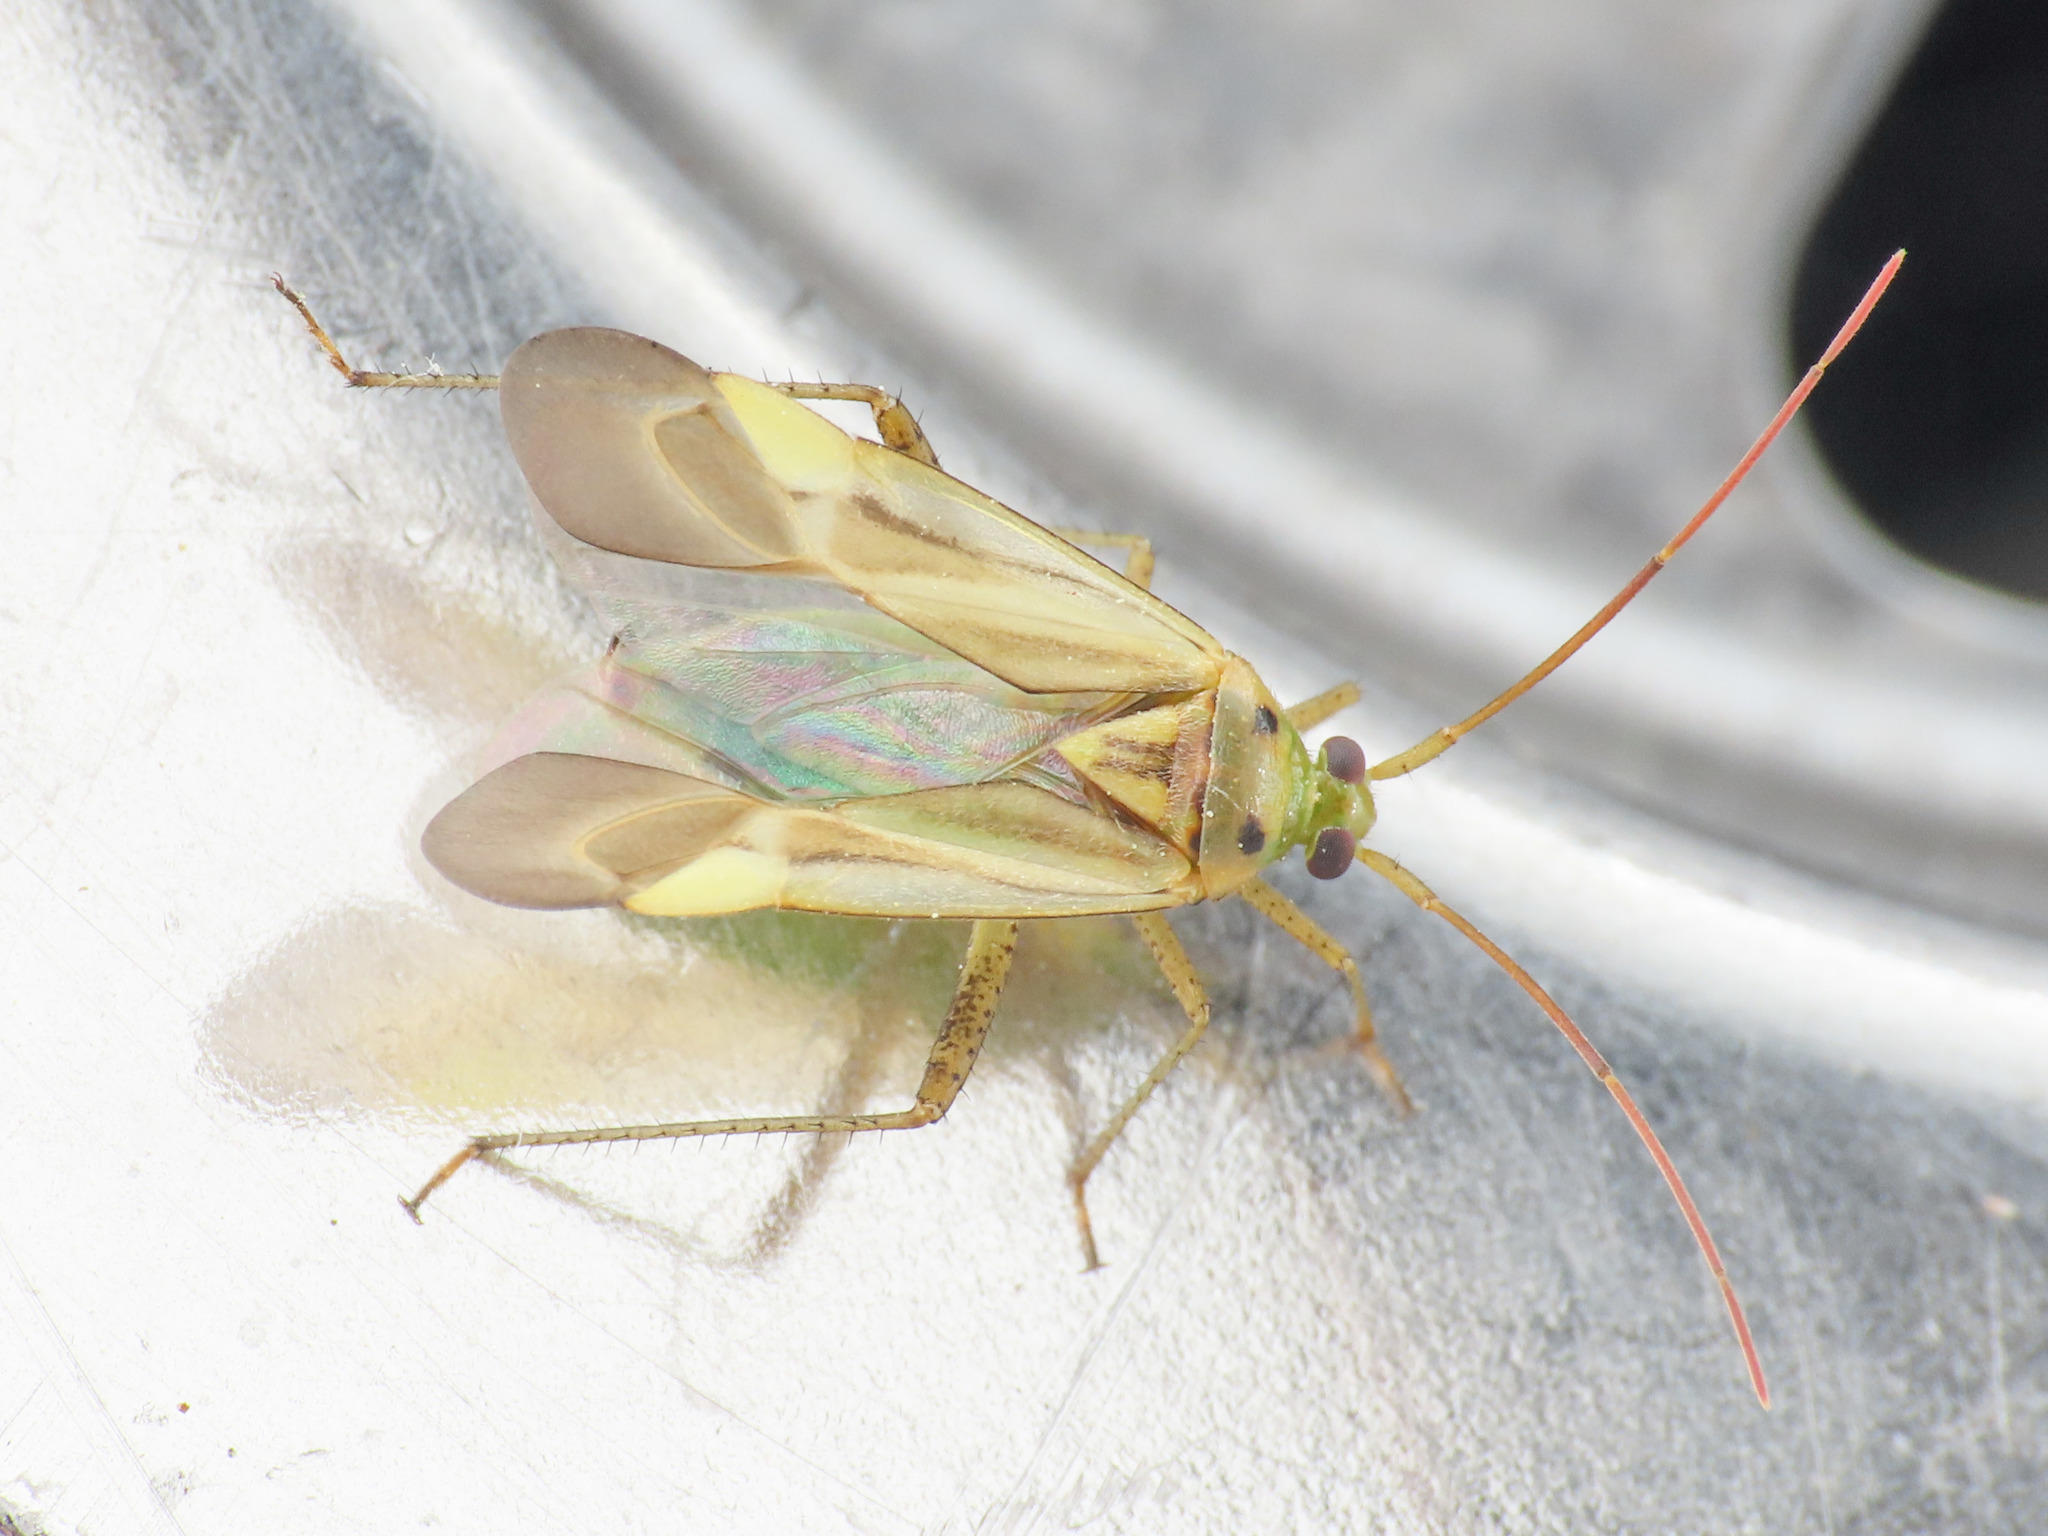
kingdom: Animalia
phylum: Arthropoda
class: Insecta
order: Hemiptera
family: Miridae
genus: Adelphocoris
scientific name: Adelphocoris lineolatus
